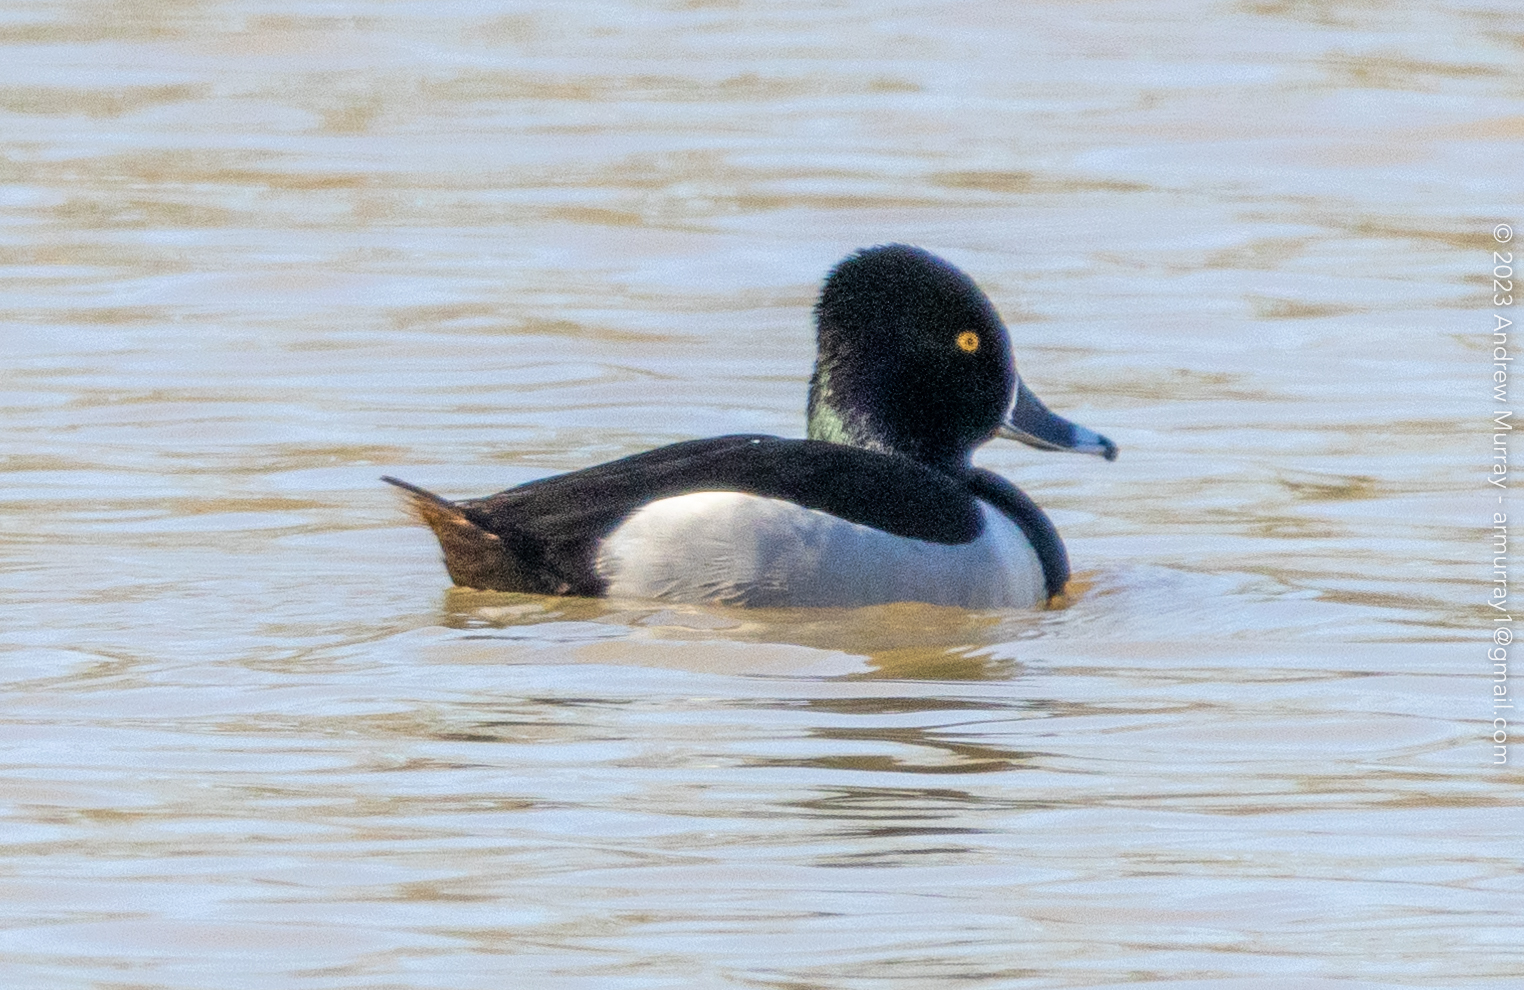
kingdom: Animalia
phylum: Chordata
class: Aves
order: Anseriformes
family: Anatidae
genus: Aythya
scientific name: Aythya collaris
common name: Ring-necked duck
